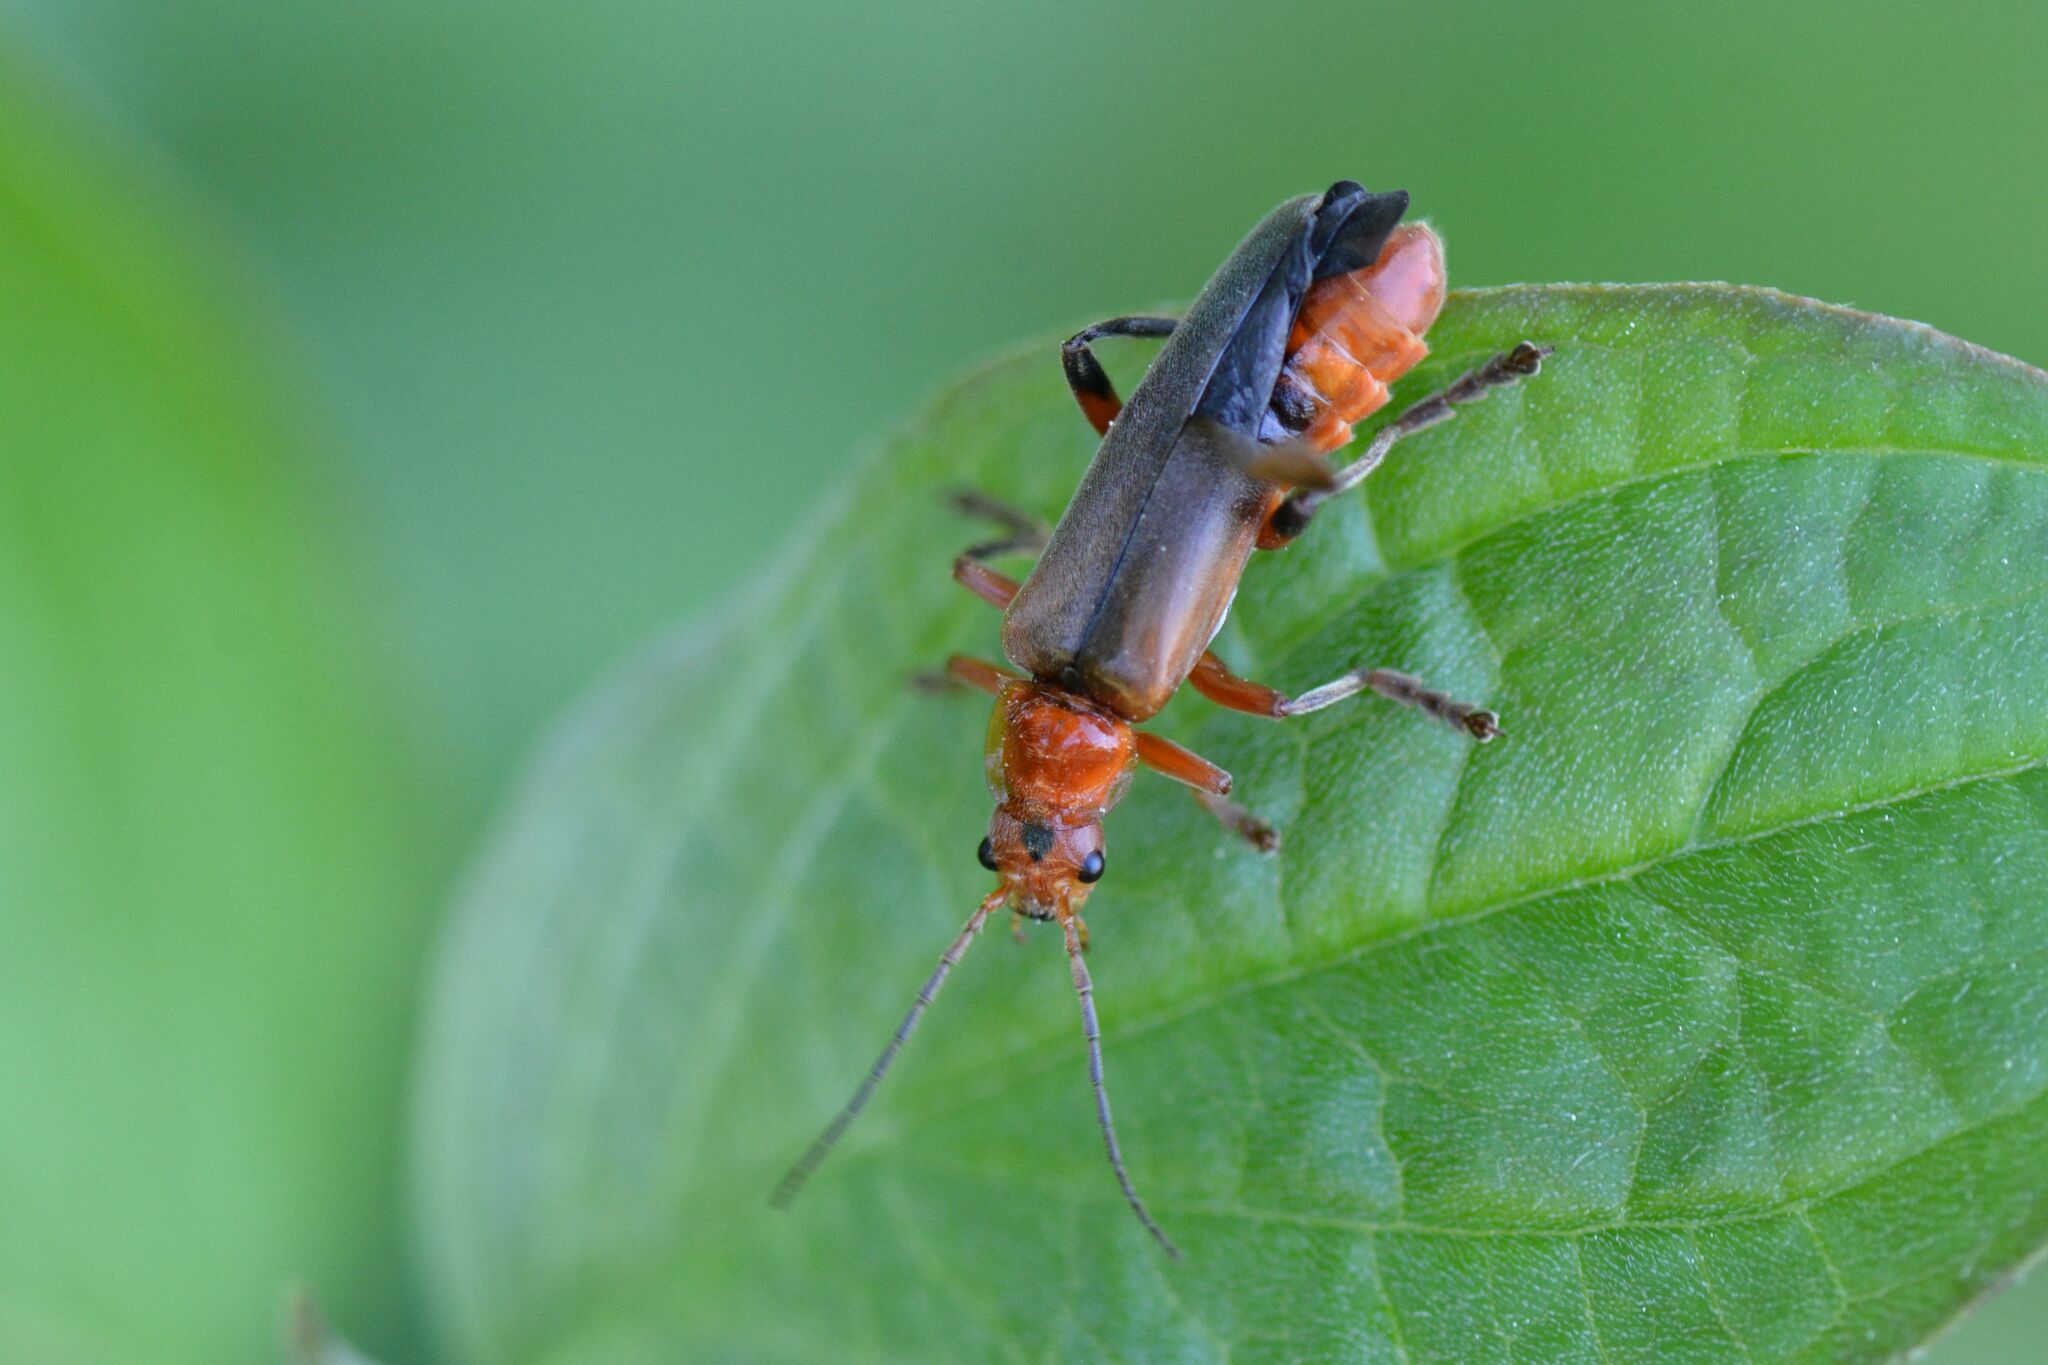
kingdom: Animalia
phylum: Arthropoda
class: Insecta
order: Coleoptera
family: Cantharidae
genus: Cantharis
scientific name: Cantharis livida
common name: Livid soldier beetle
